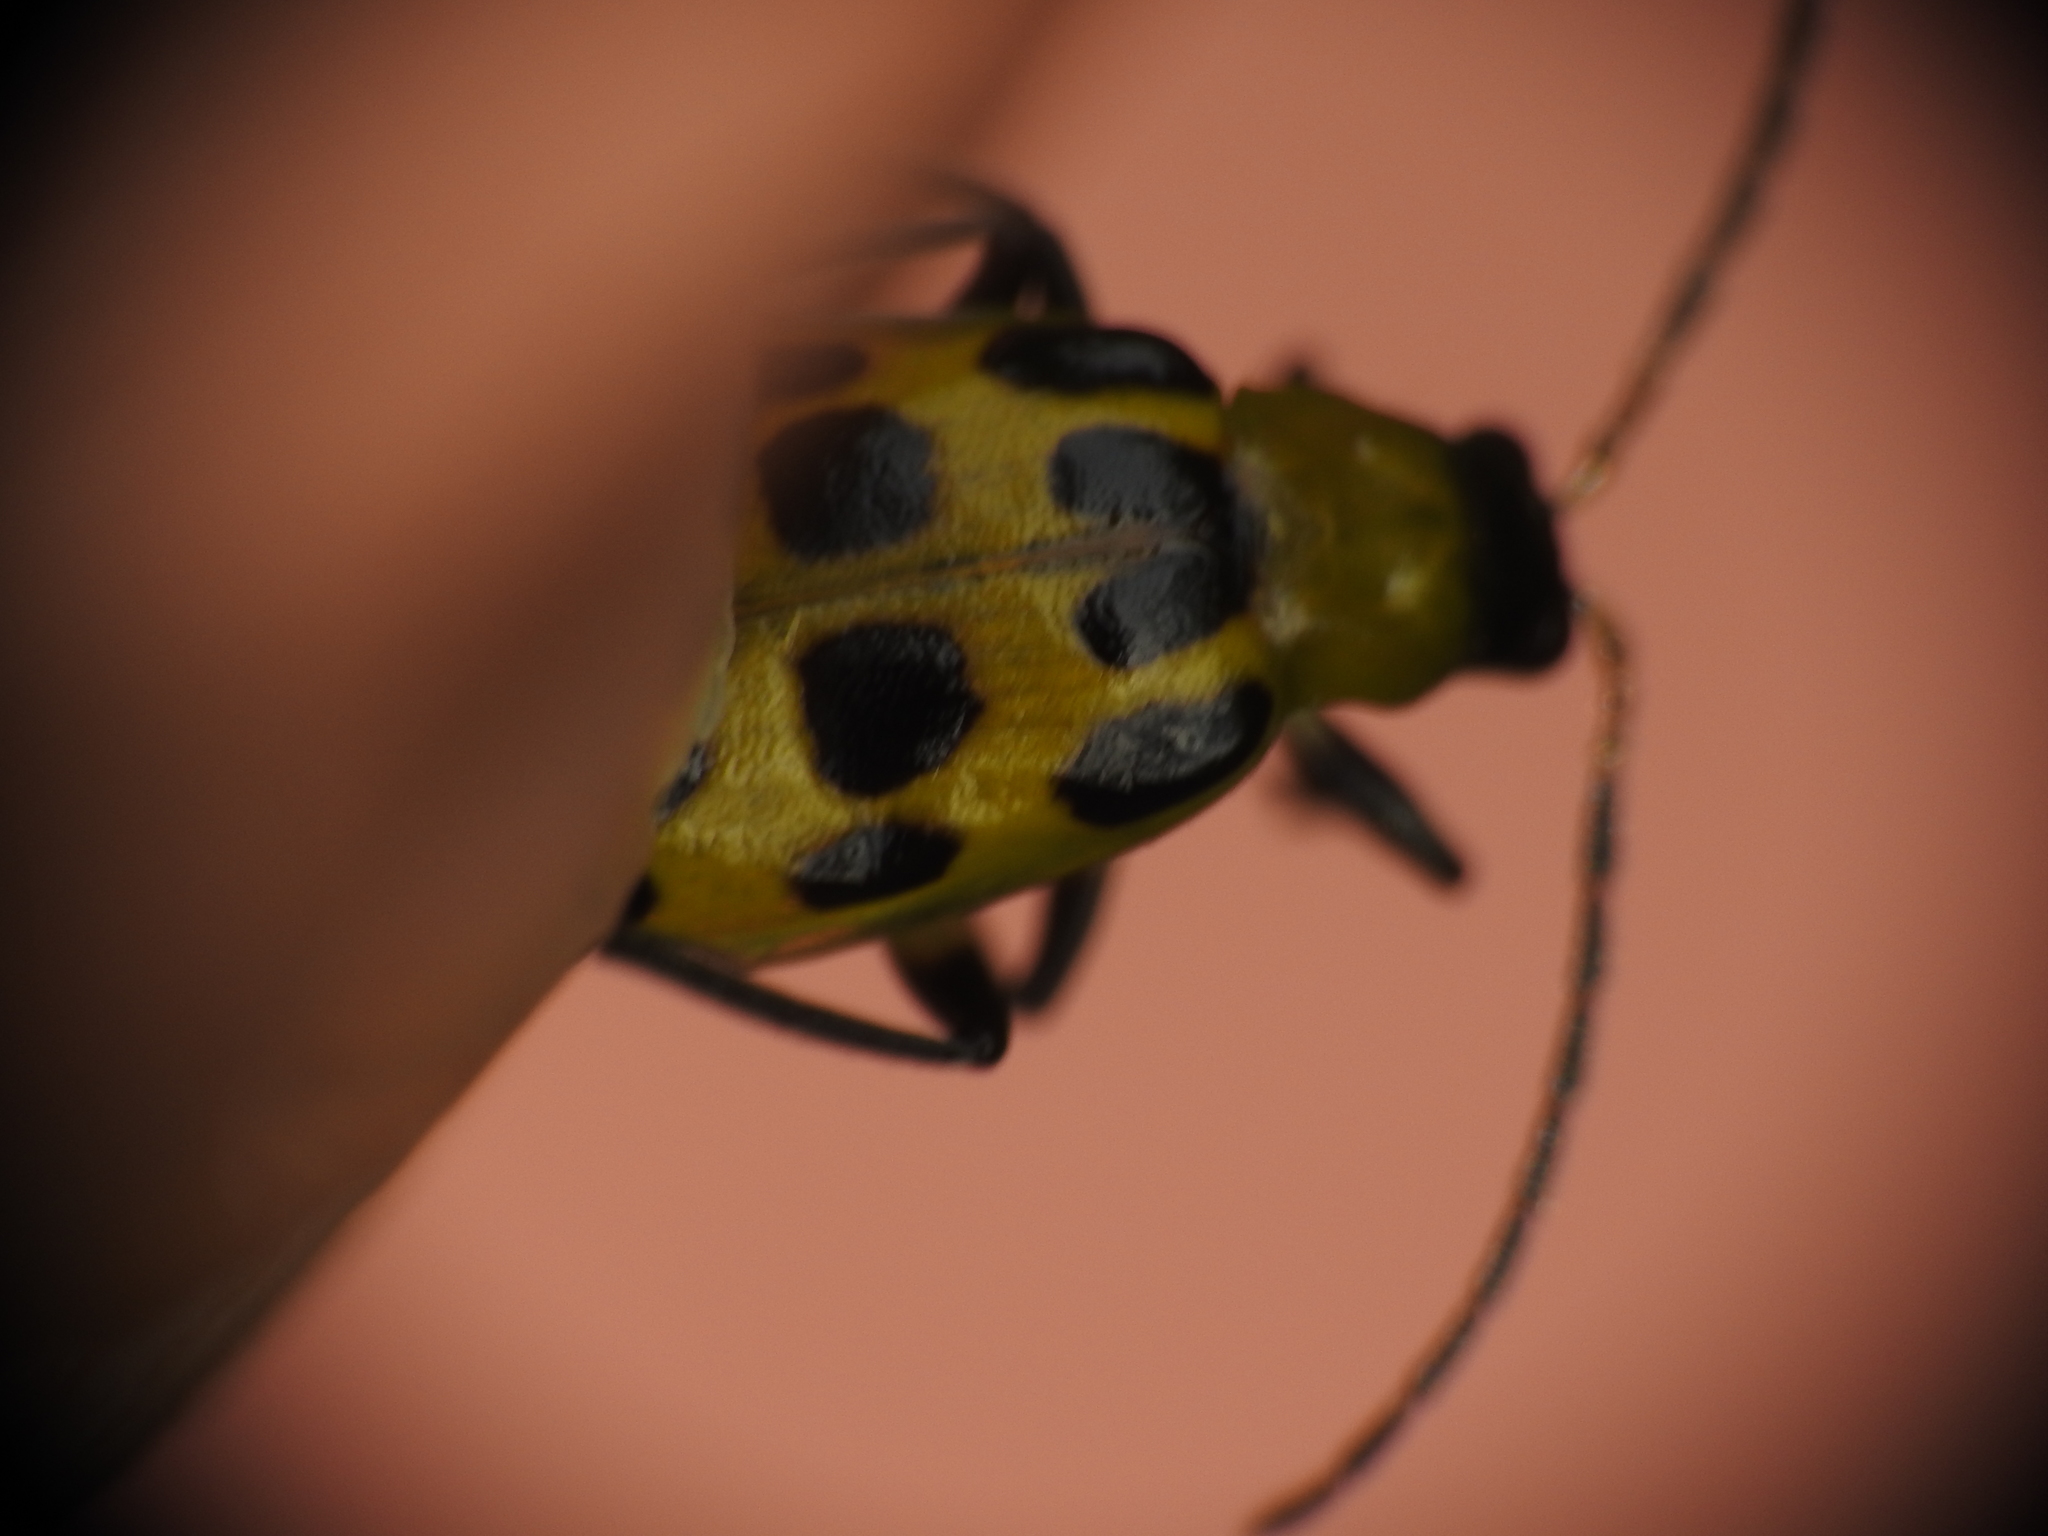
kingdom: Animalia
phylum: Arthropoda
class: Insecta
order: Coleoptera
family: Chrysomelidae
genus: Diabrotica
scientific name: Diabrotica undecimpunctata
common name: Spotted cucumber beetle
